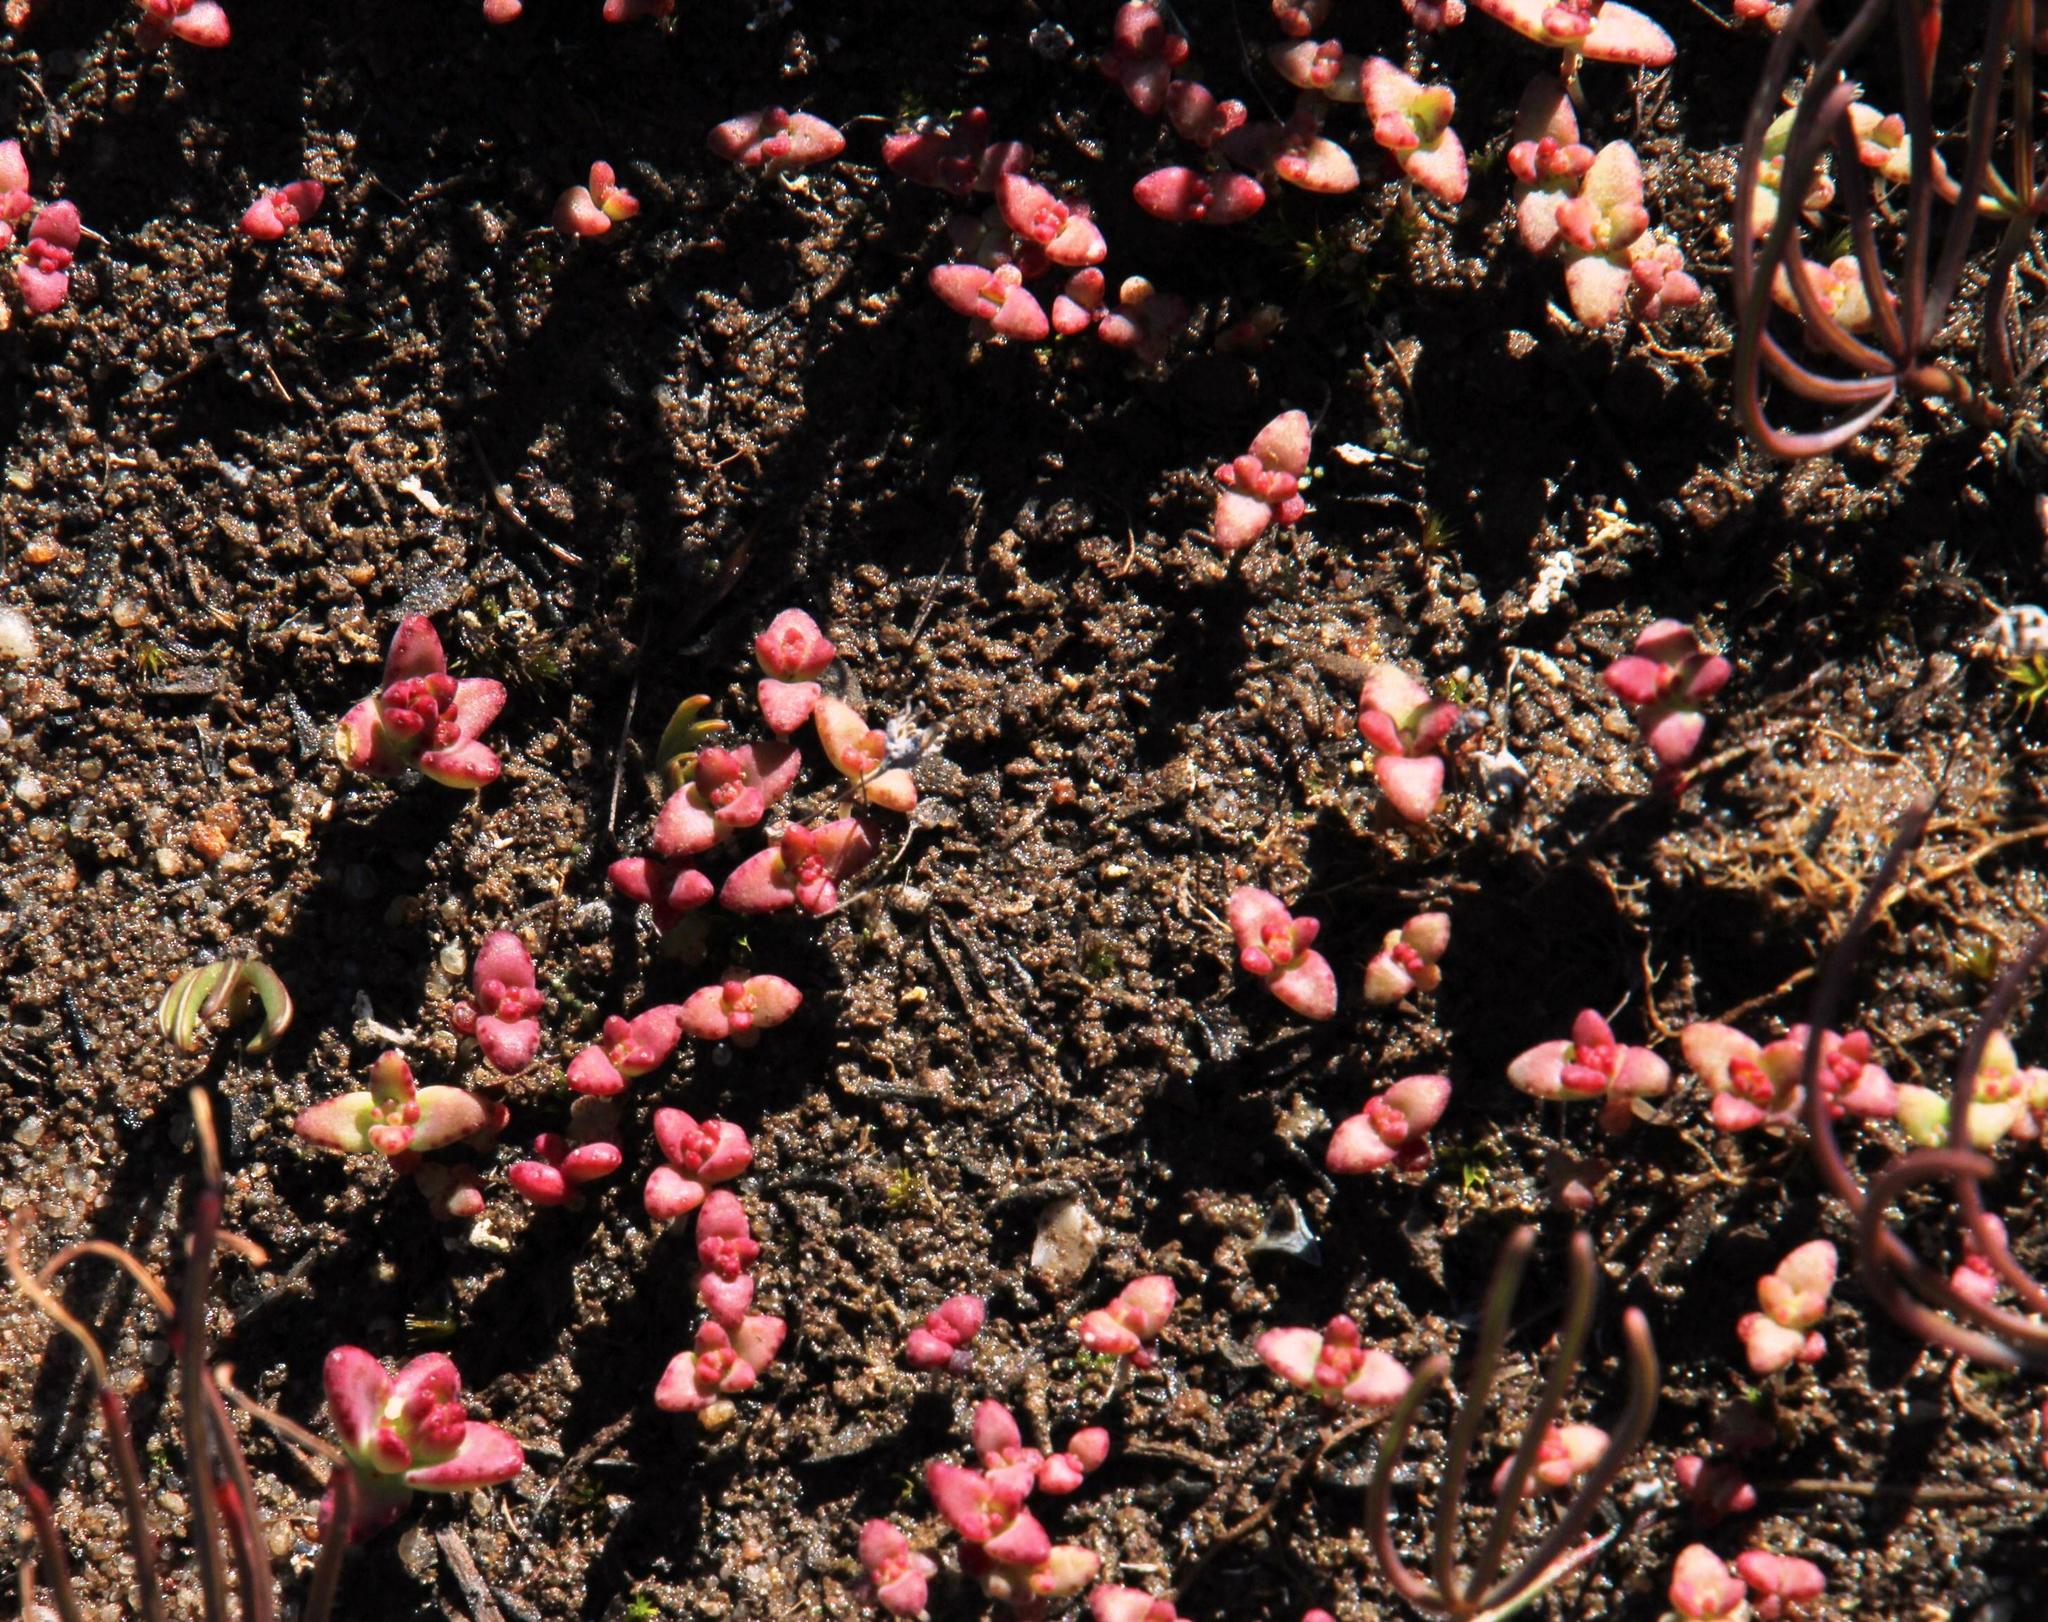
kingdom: Plantae
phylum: Tracheophyta
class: Magnoliopsida
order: Saxifragales
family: Crassulaceae
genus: Crassula
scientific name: Crassula dichotoma
